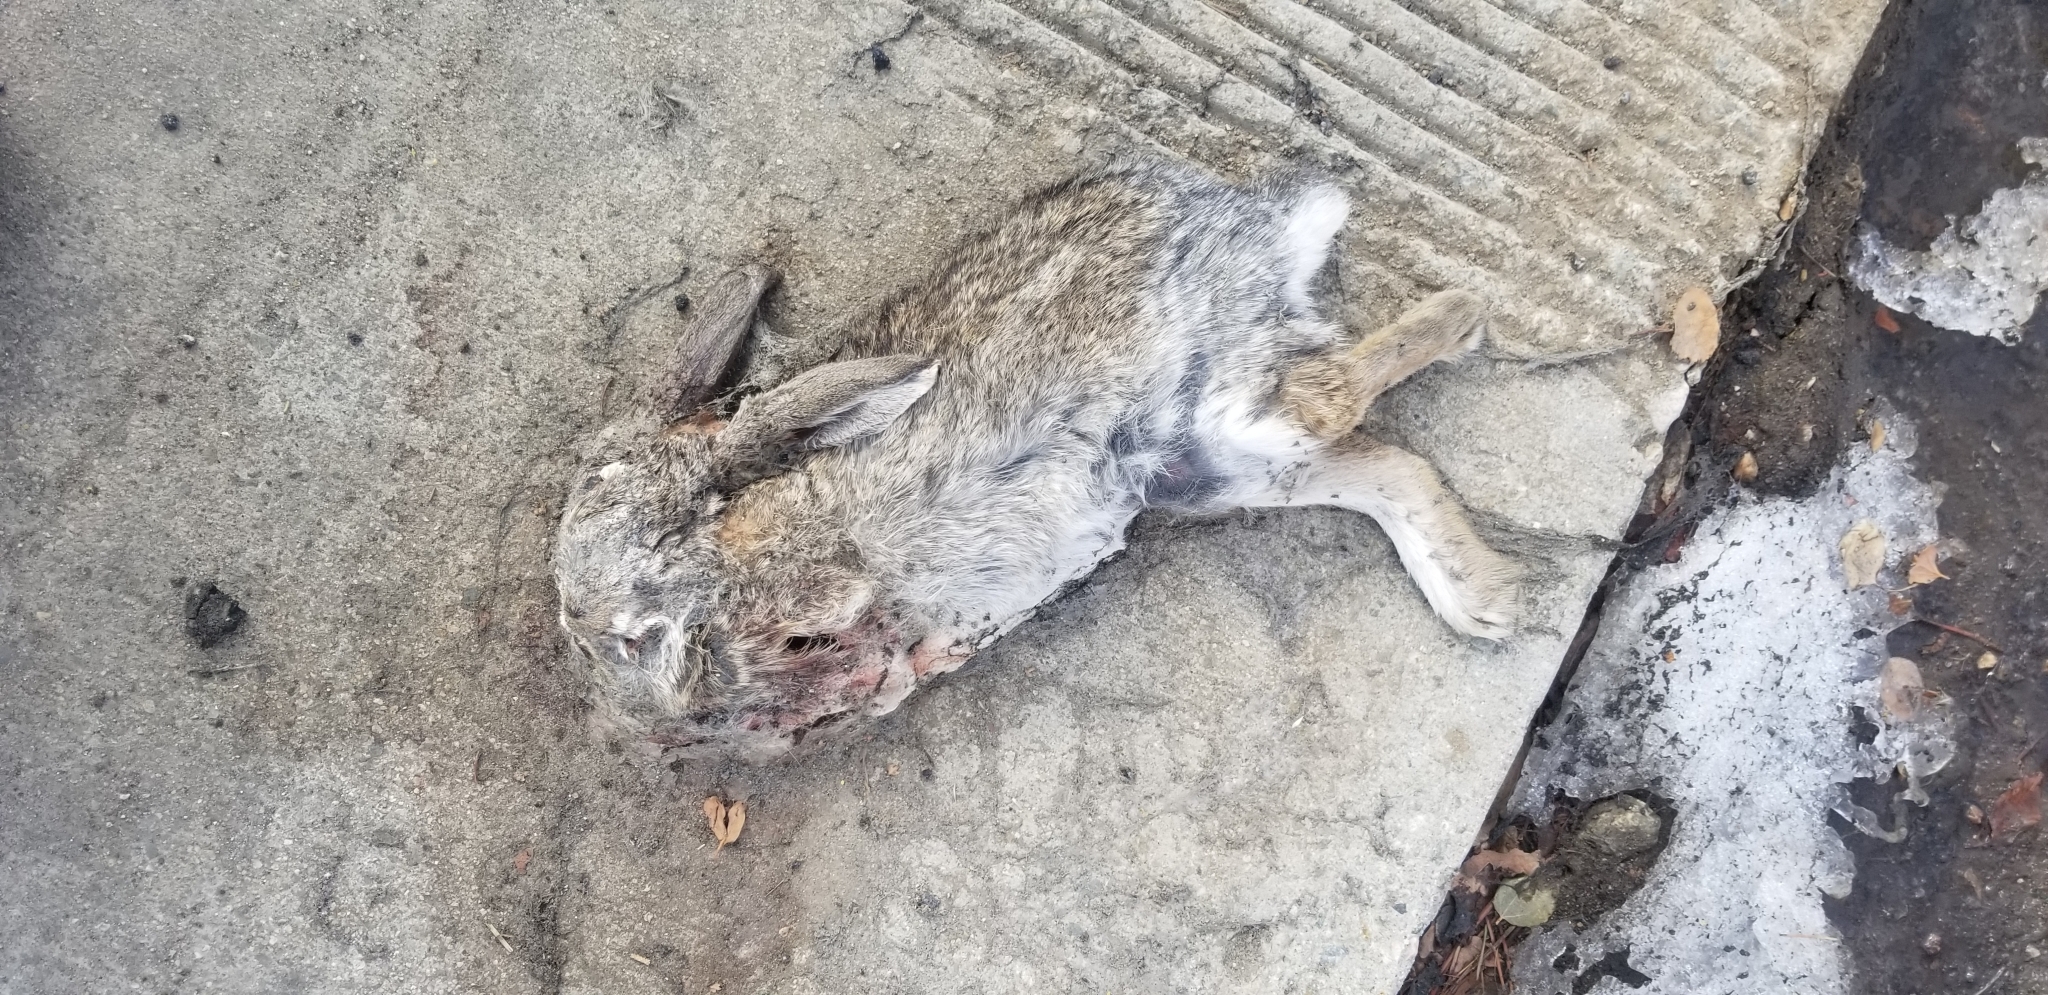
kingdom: Animalia
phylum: Chordata
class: Mammalia
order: Lagomorpha
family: Leporidae
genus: Sylvilagus
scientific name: Sylvilagus audubonii
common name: Desert cottontail
